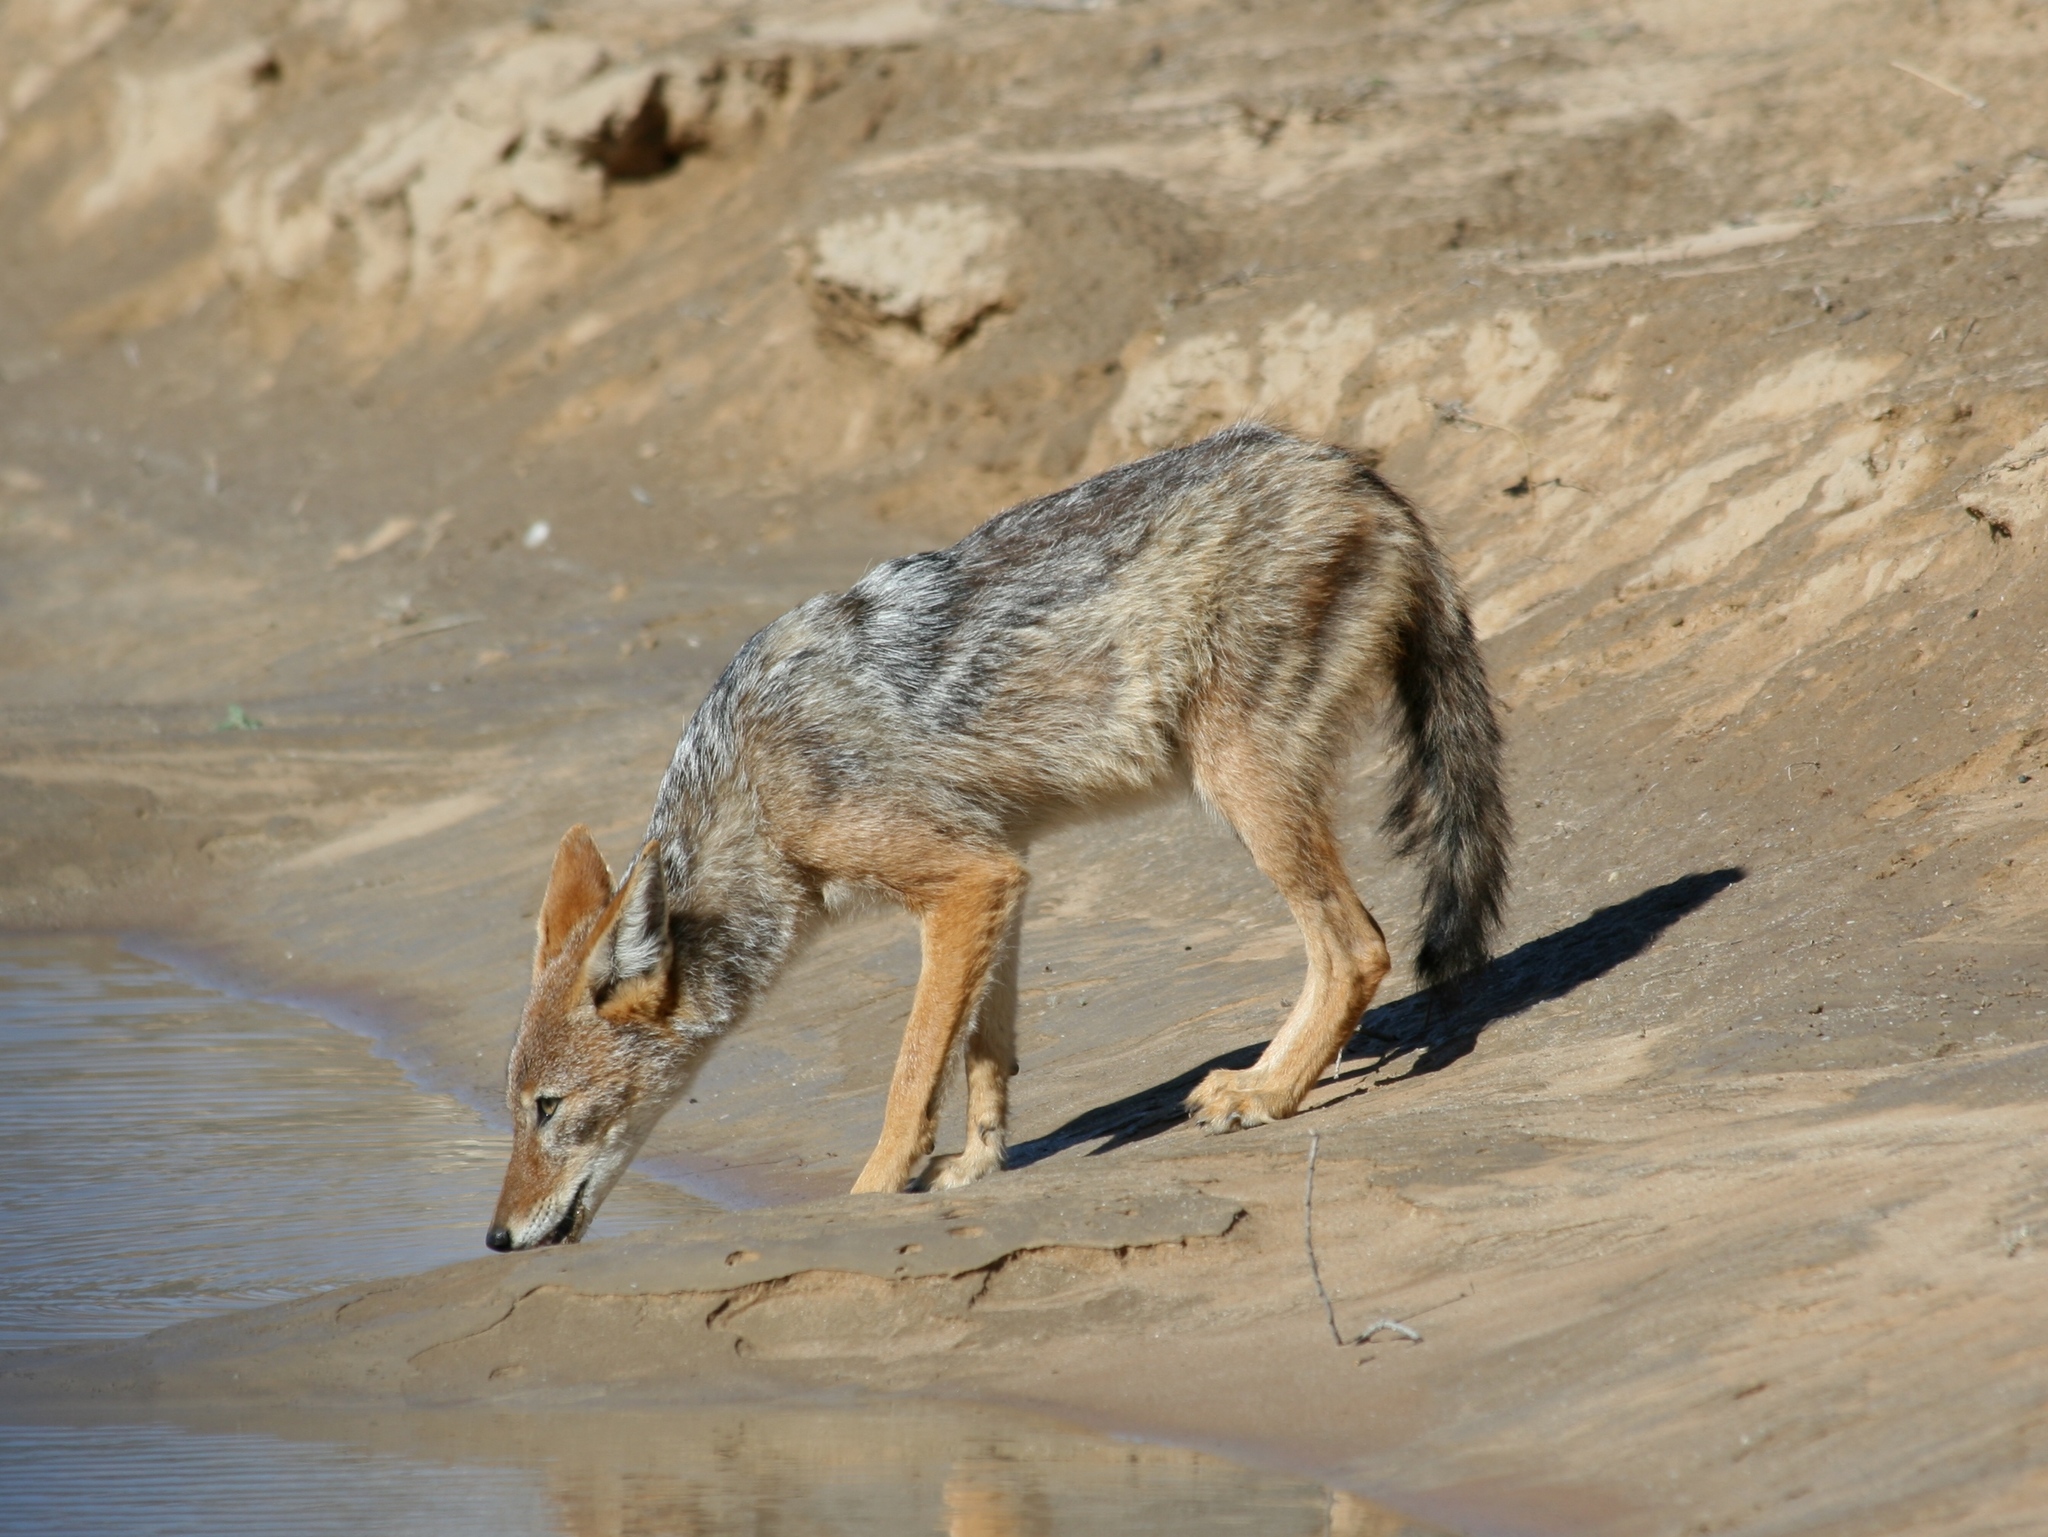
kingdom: Animalia
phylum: Chordata
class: Mammalia
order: Carnivora
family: Canidae
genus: Lupulella
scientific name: Lupulella
